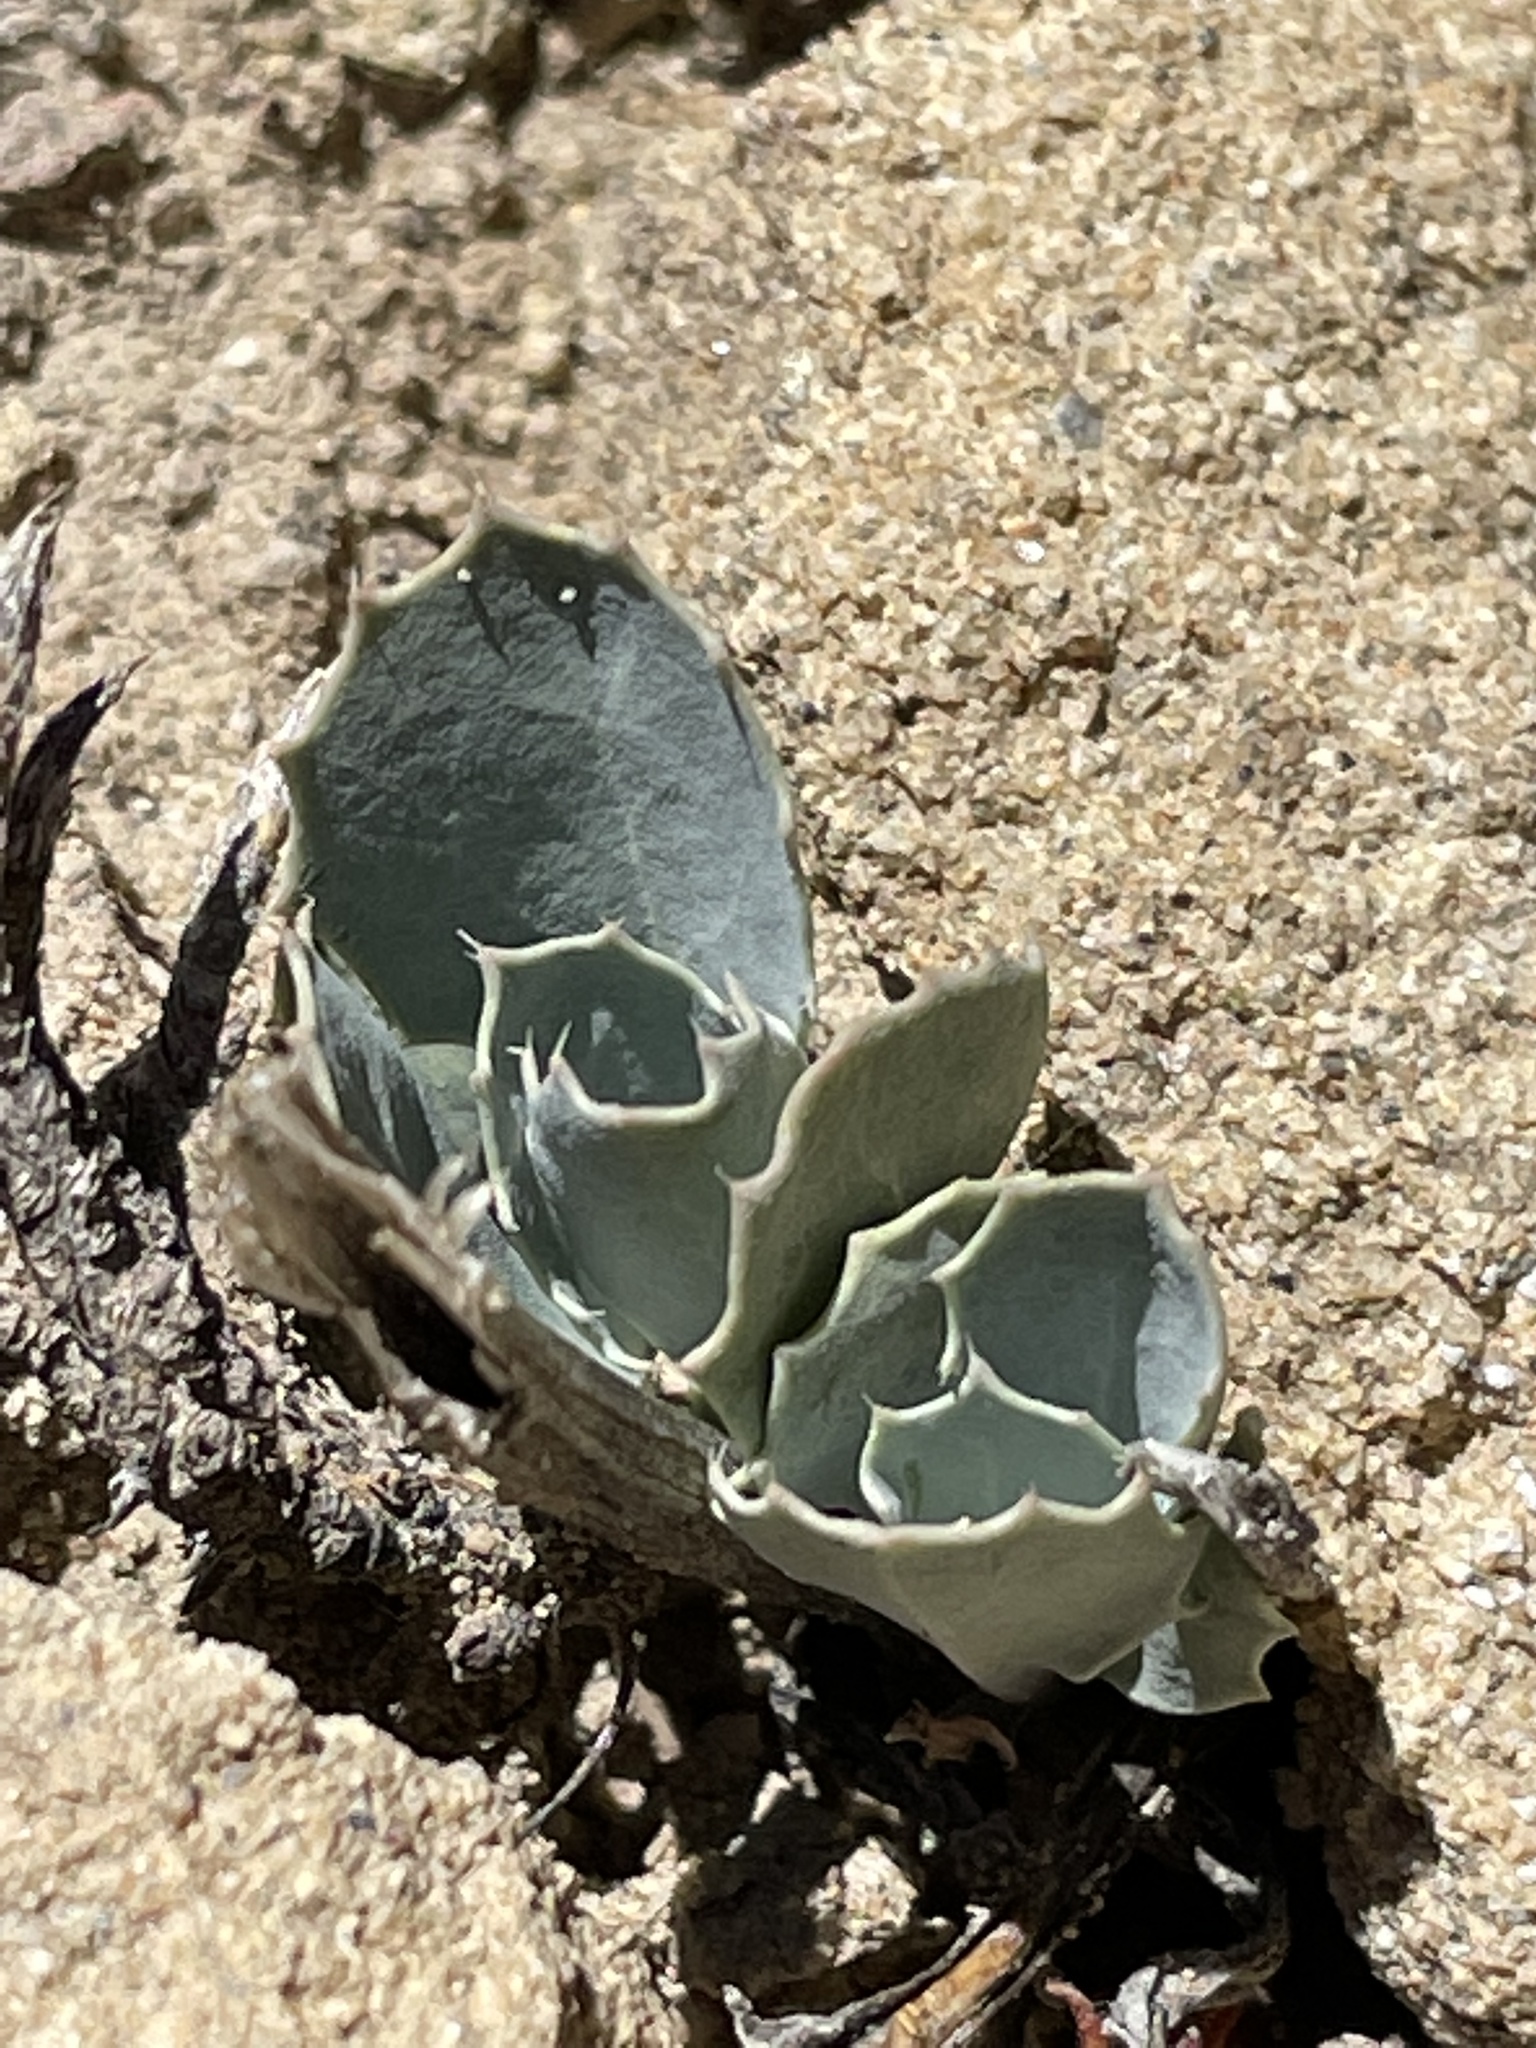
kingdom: Plantae
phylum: Tracheophyta
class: Magnoliopsida
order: Brassicales
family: Brassicaceae
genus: Streptanthus
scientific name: Streptanthus cordatus
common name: Heart-leaf jewel-flower
